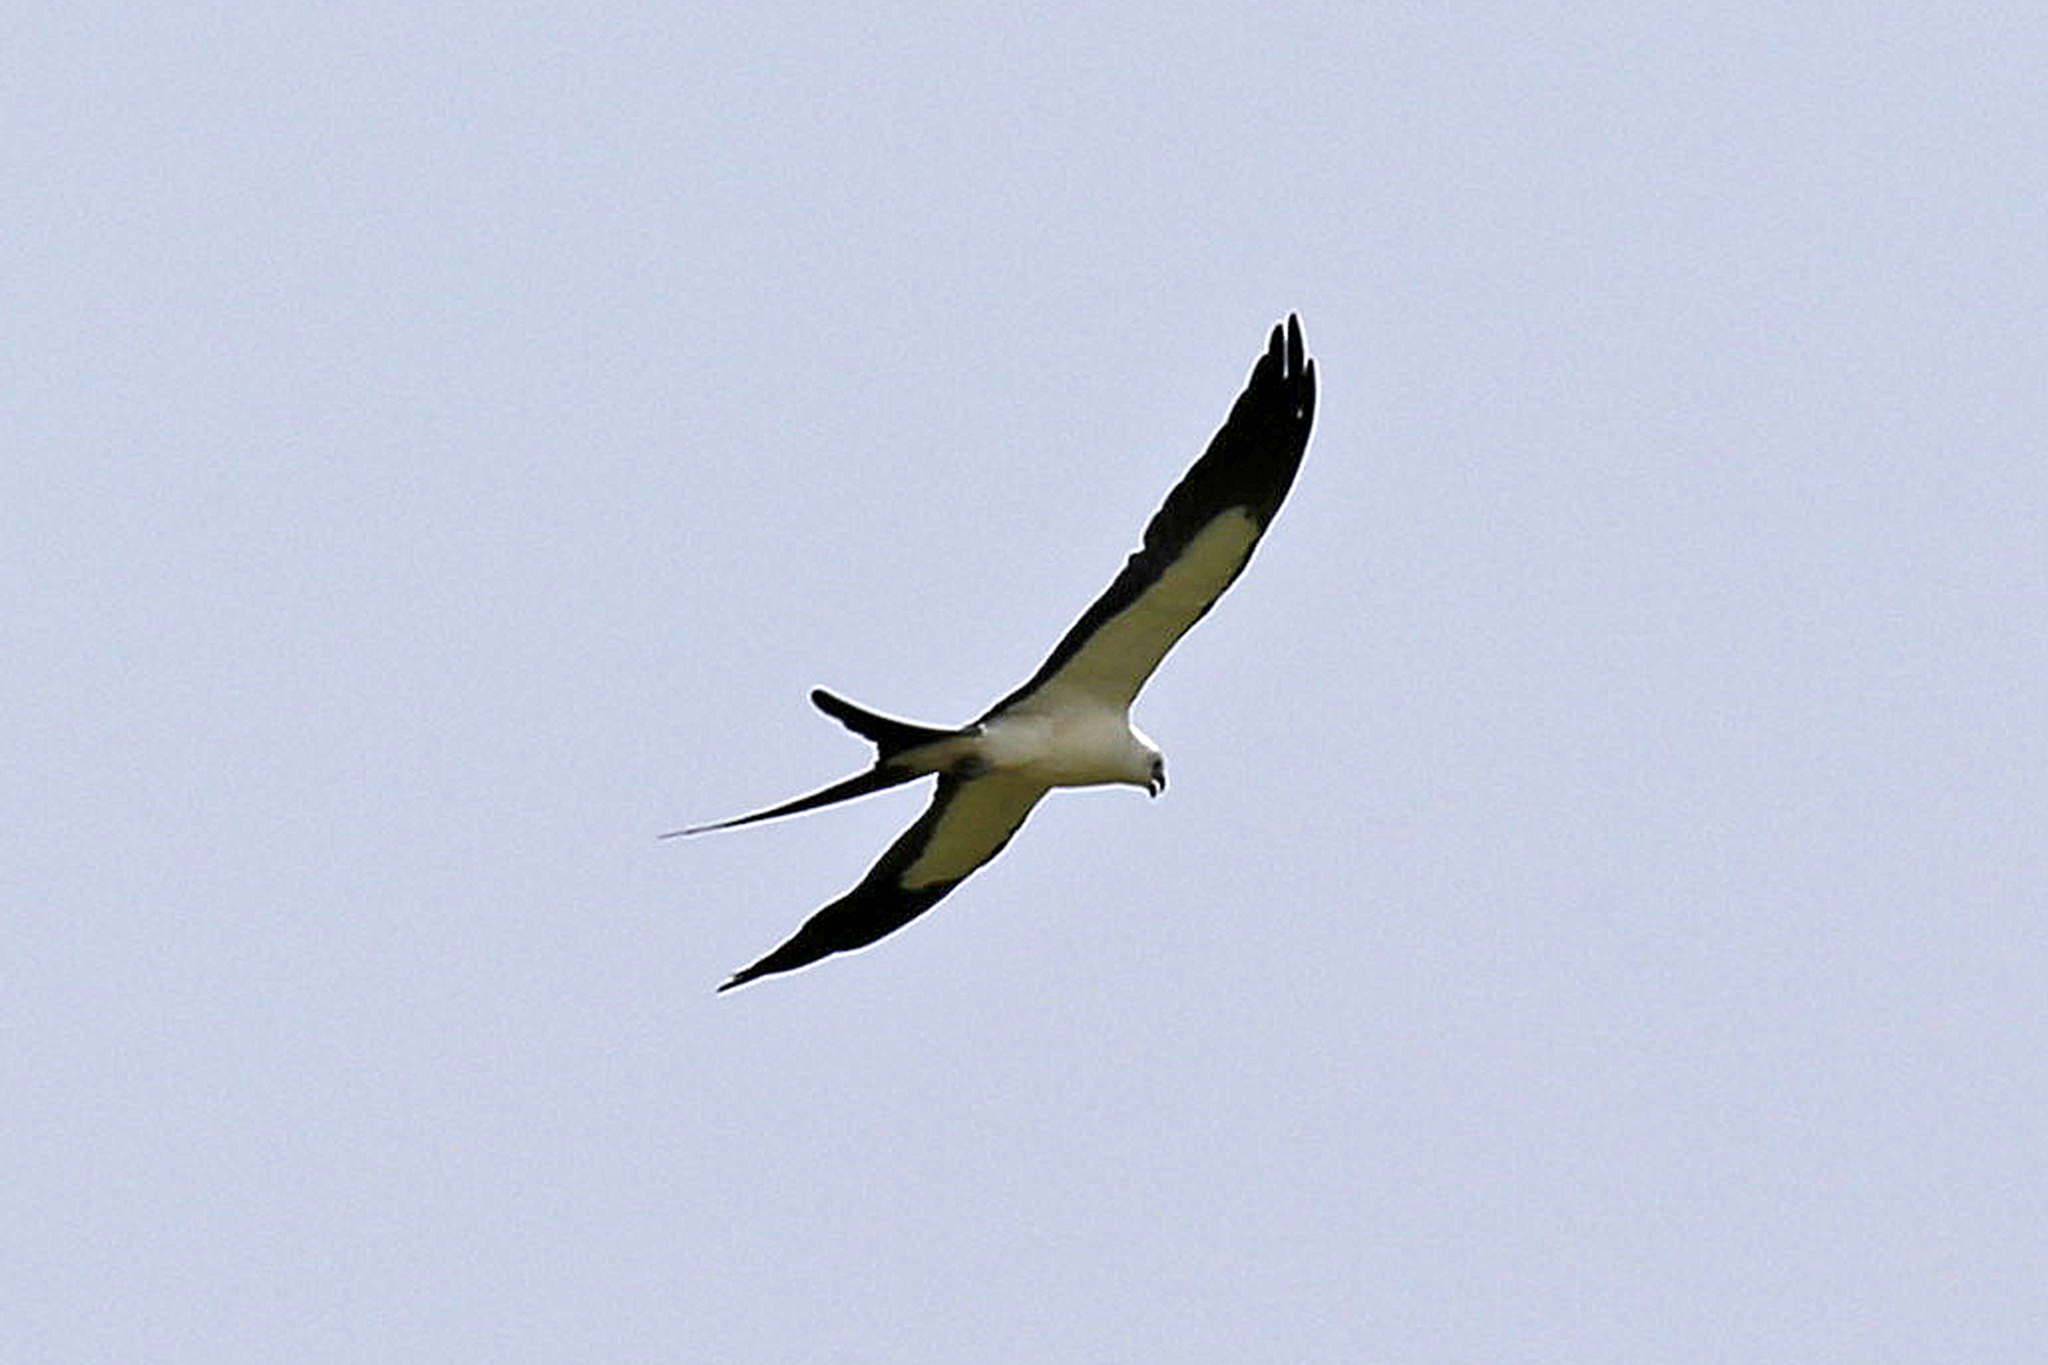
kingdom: Animalia
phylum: Chordata
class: Aves
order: Accipitriformes
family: Accipitridae
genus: Elanoides
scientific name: Elanoides forficatus
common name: Swallow-tailed kite
